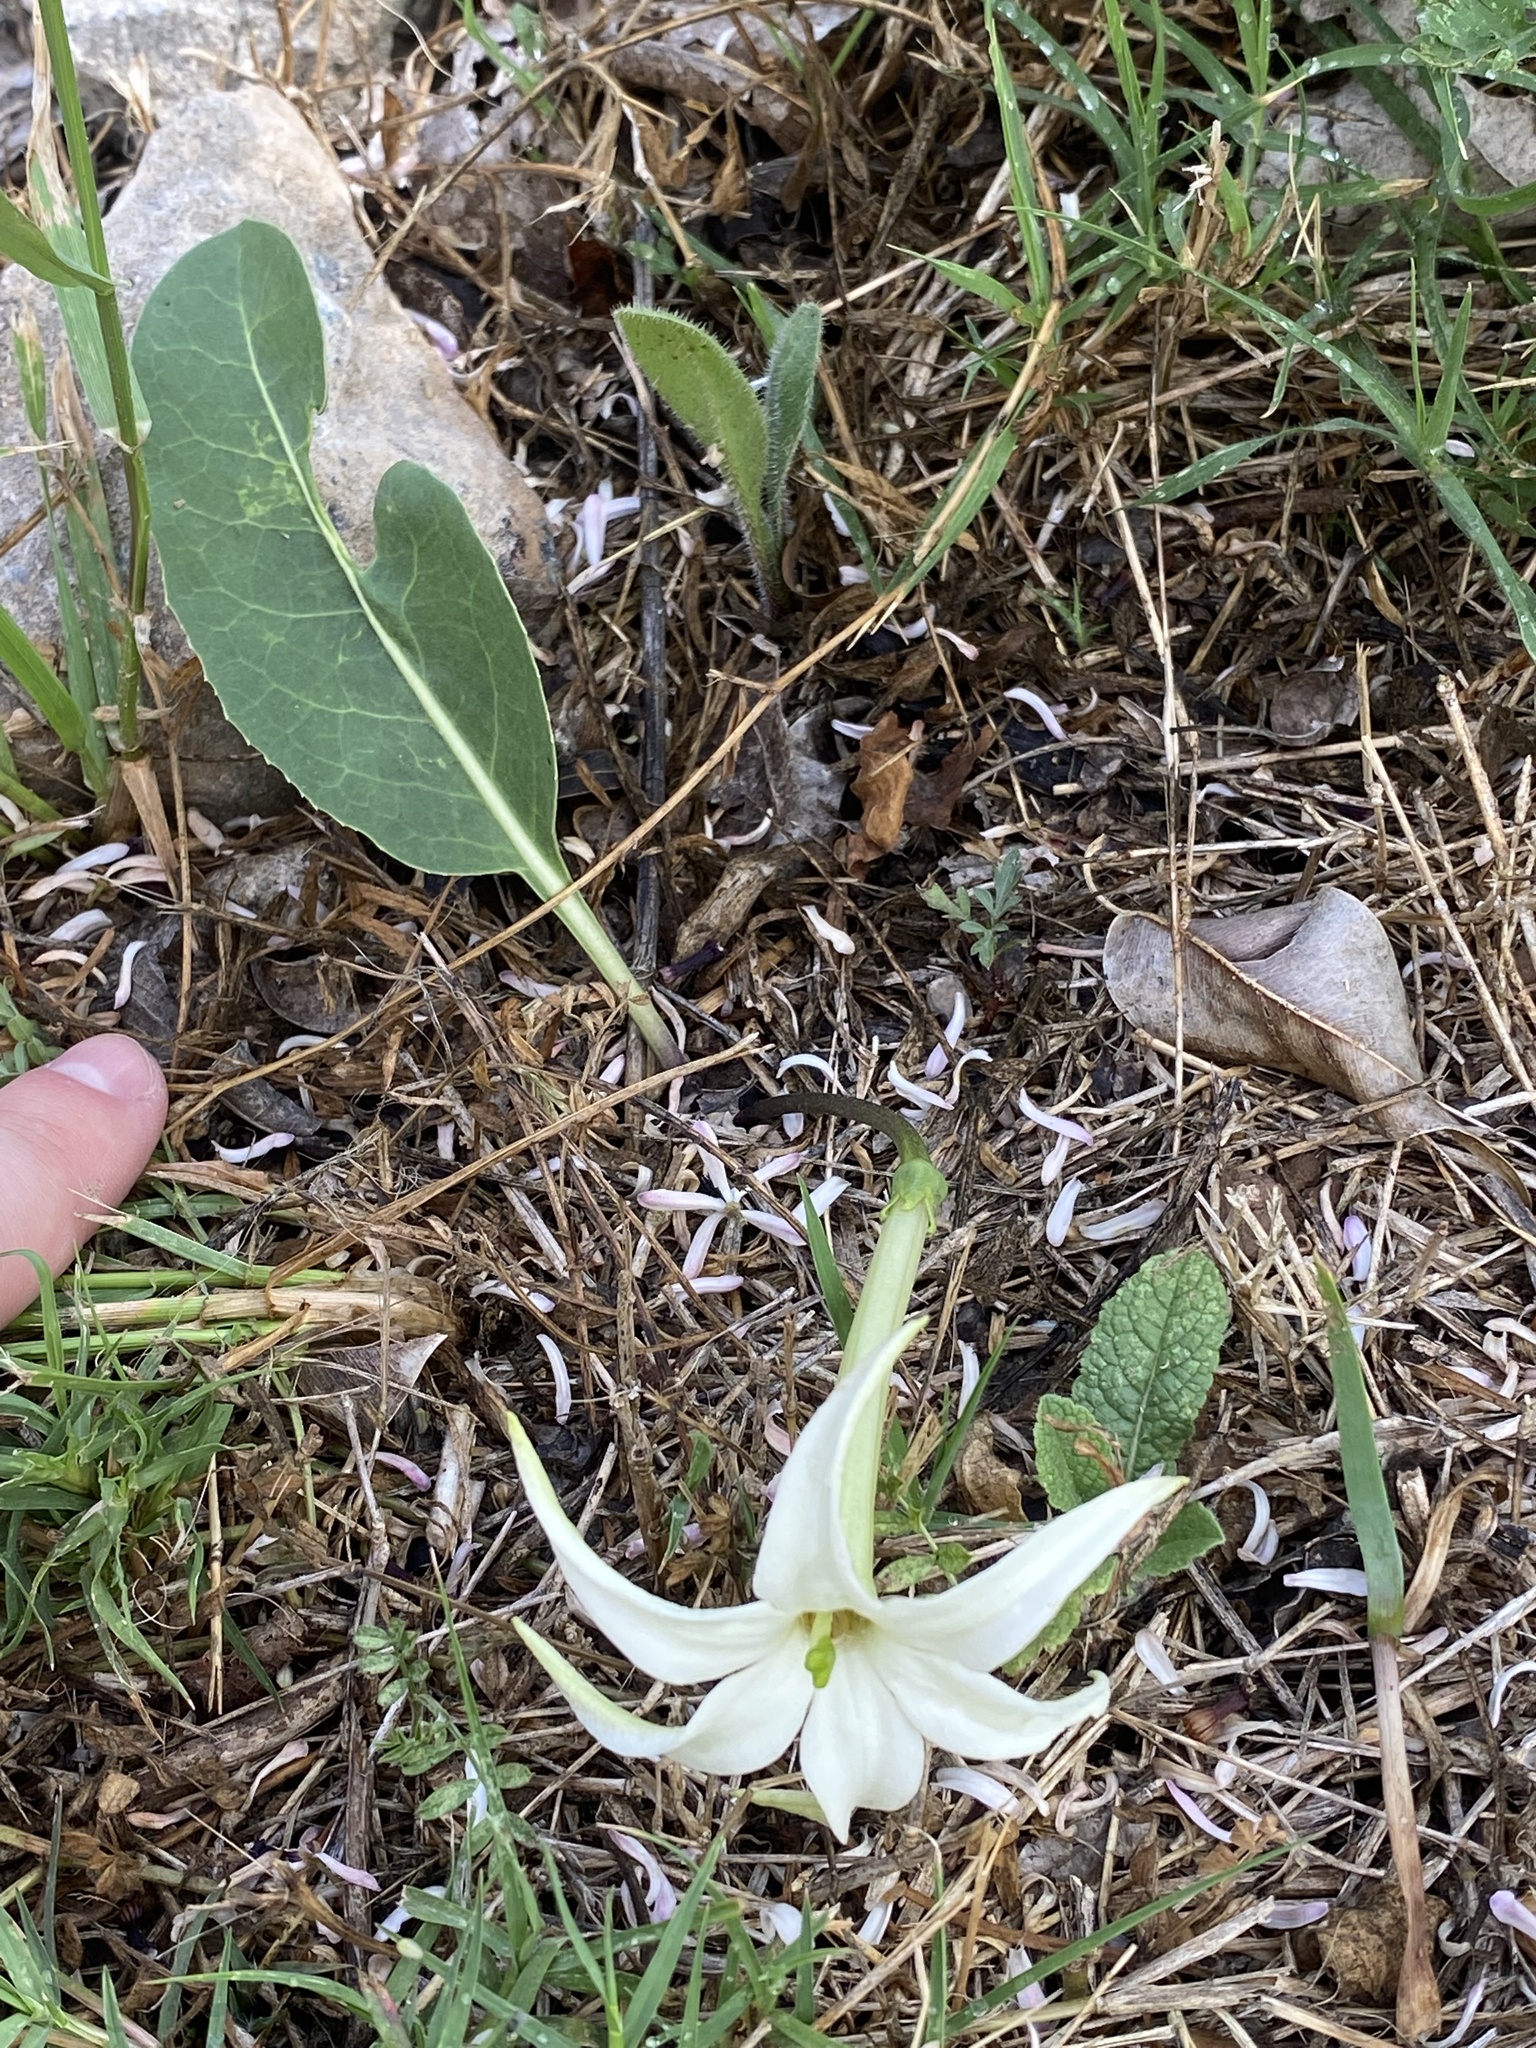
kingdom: Plantae
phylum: Tracheophyta
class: Magnoliopsida
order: Solanales
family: Solanaceae
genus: Jaborosa
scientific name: Jaborosa integrifolia
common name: Springblossom
